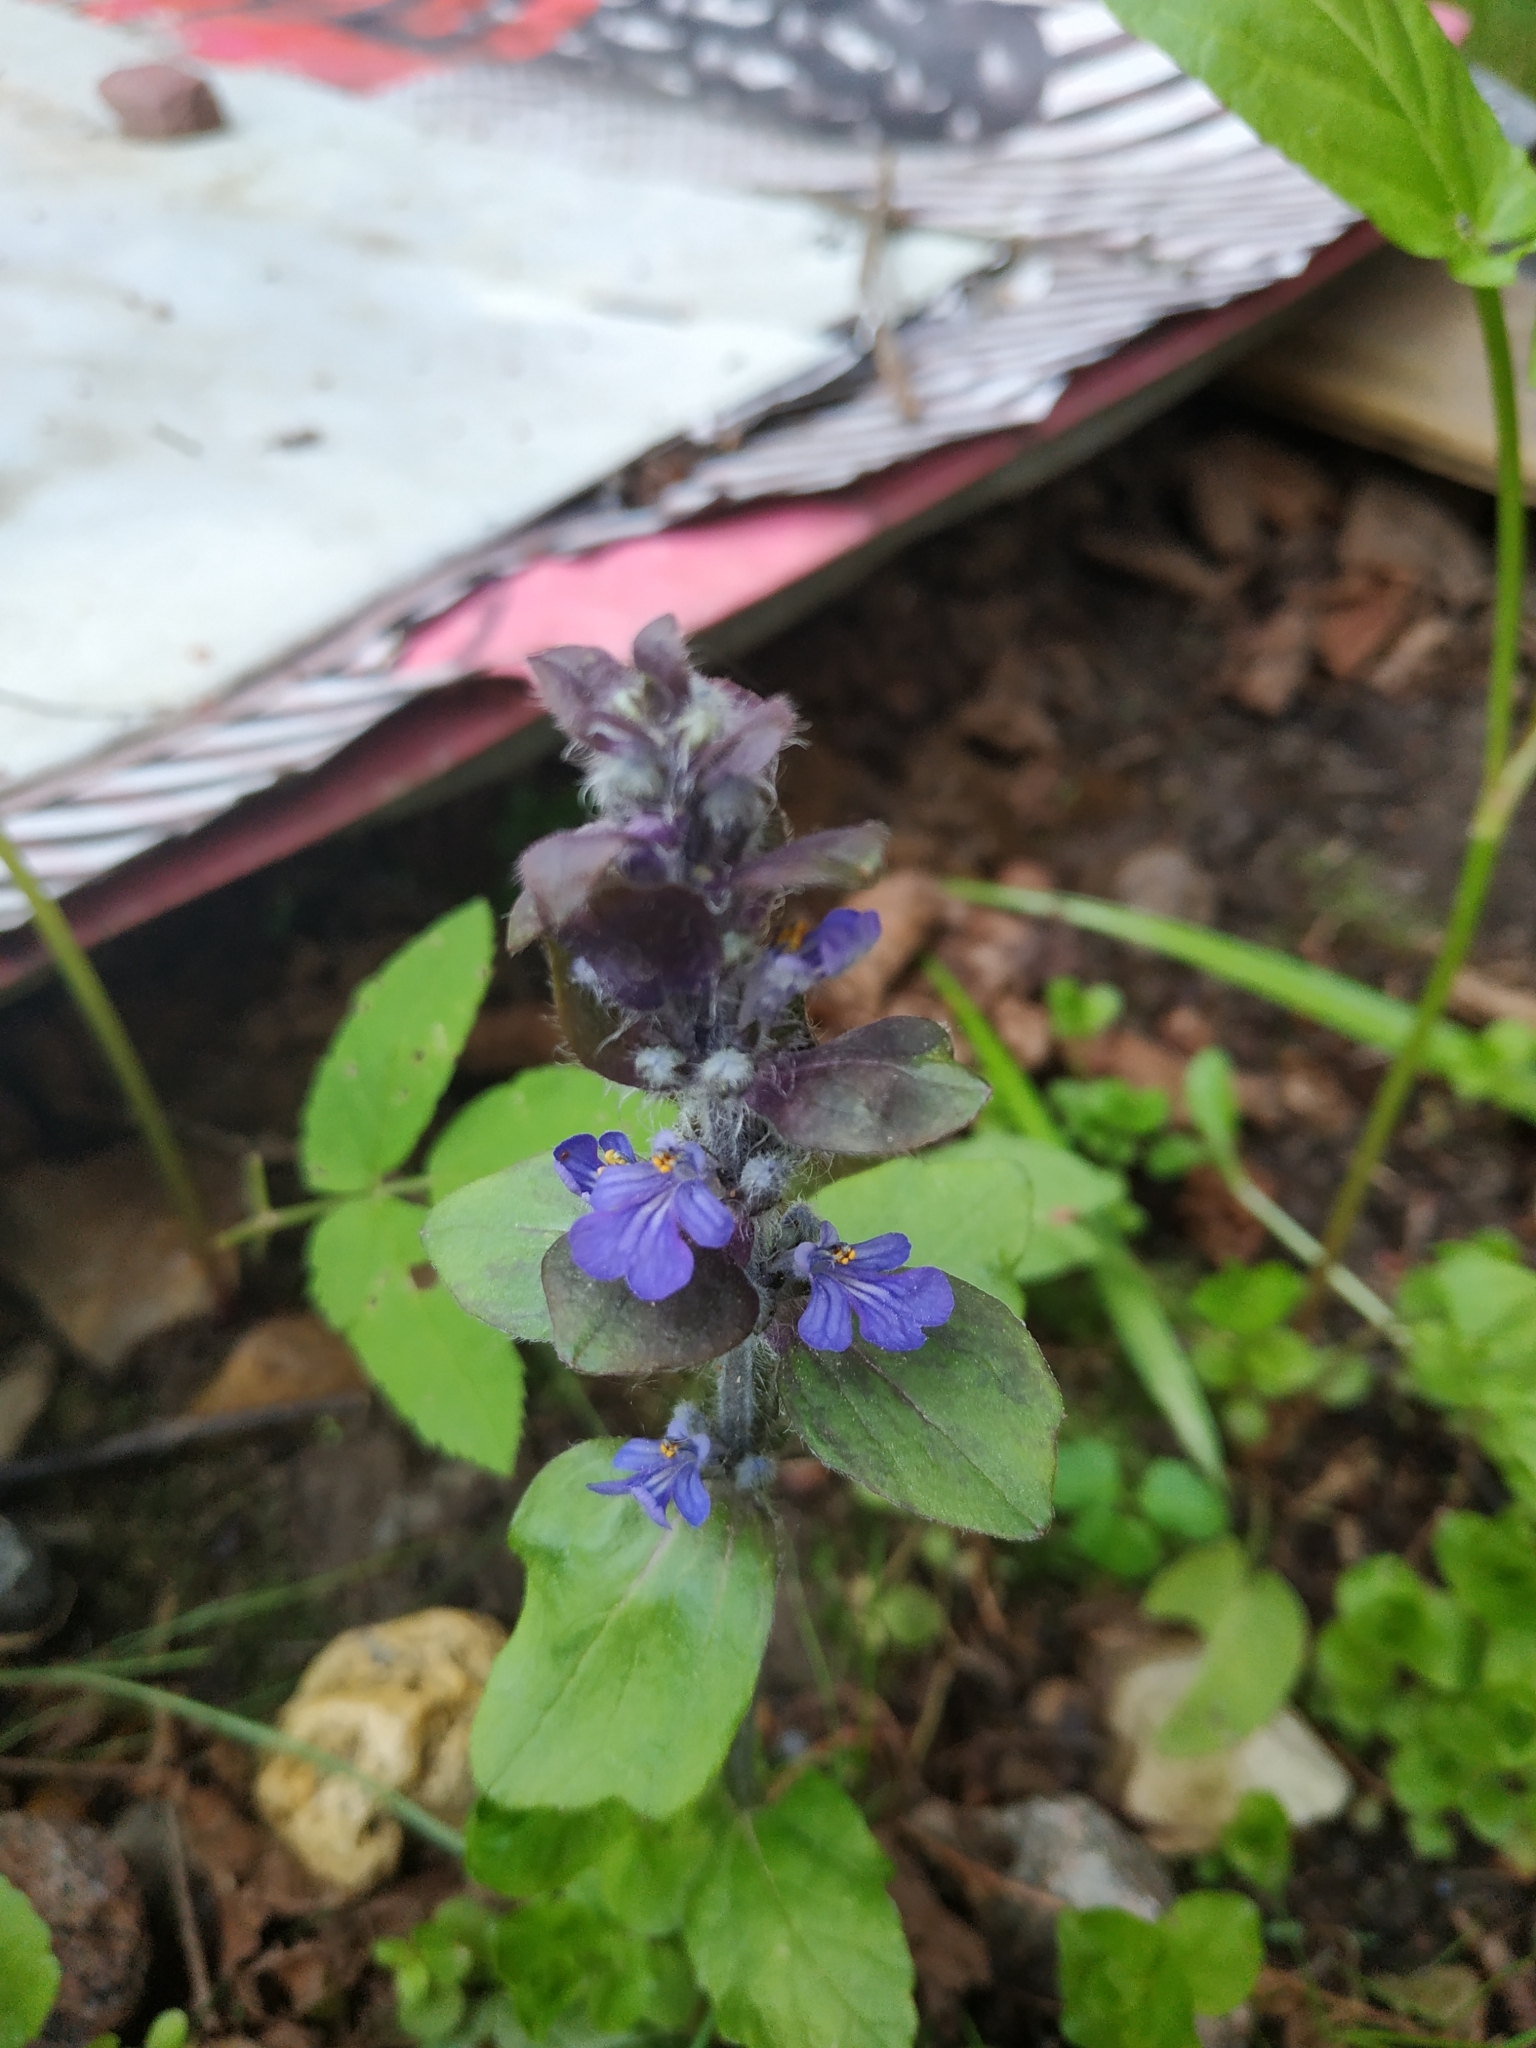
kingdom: Plantae
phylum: Tracheophyta
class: Magnoliopsida
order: Lamiales
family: Lamiaceae
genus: Ajuga
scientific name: Ajuga reptans
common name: Bugle
